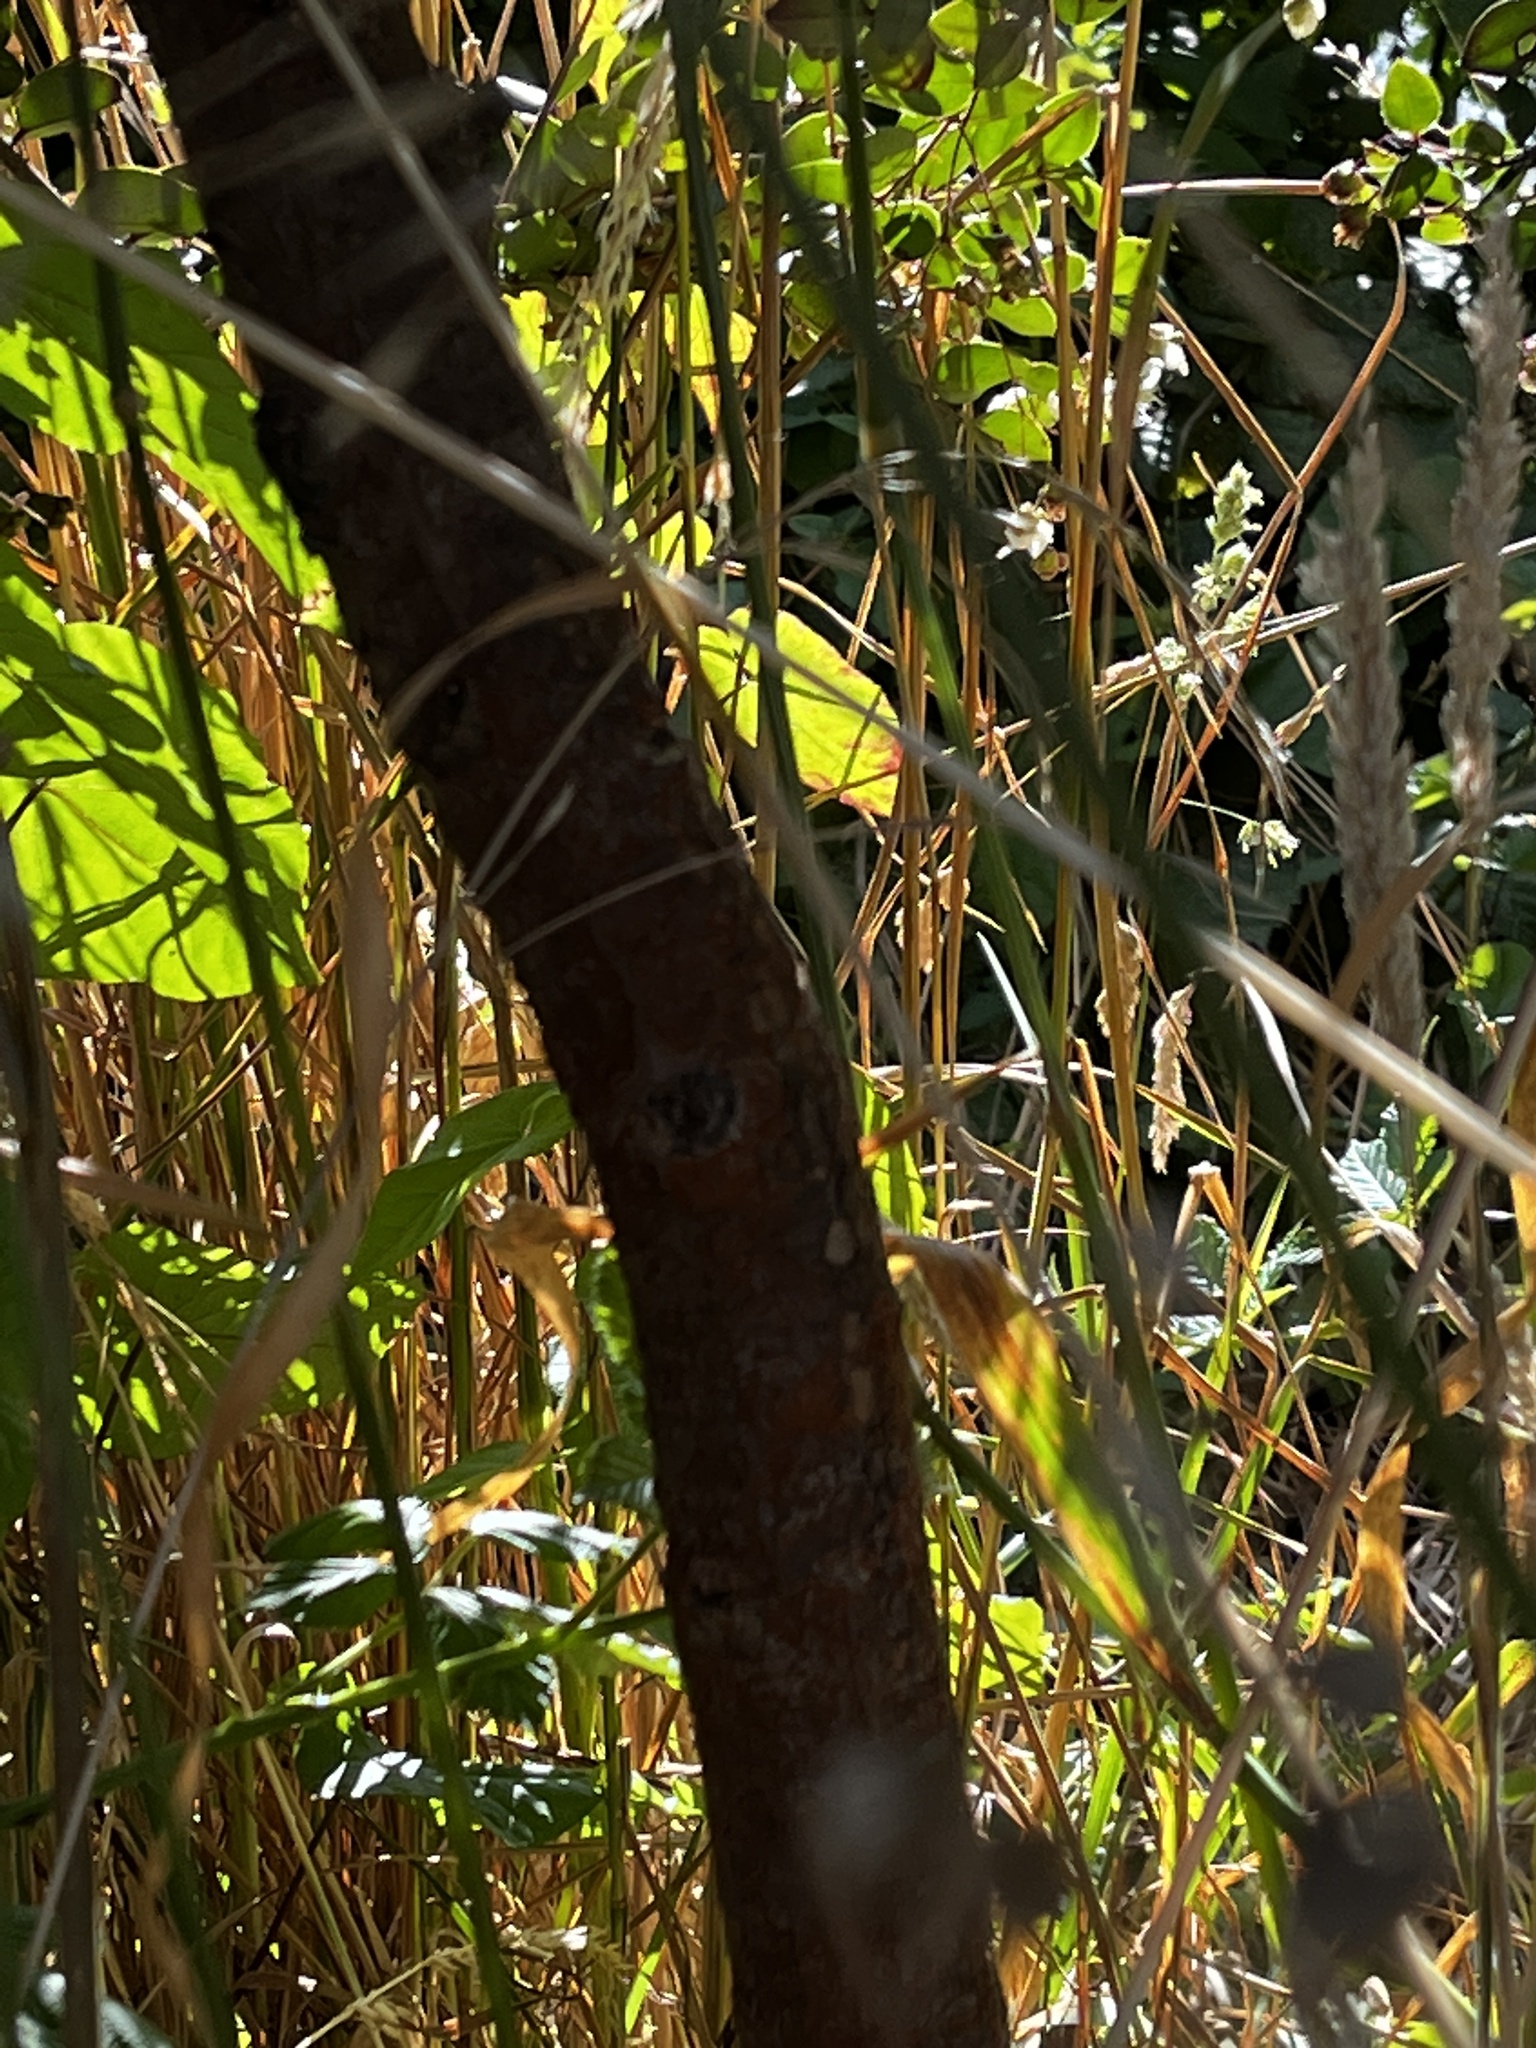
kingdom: Plantae
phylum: Tracheophyta
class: Magnoliopsida
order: Myrtales
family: Myrtaceae
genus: Luma
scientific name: Luma apiculata
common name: Chilean myrtle
